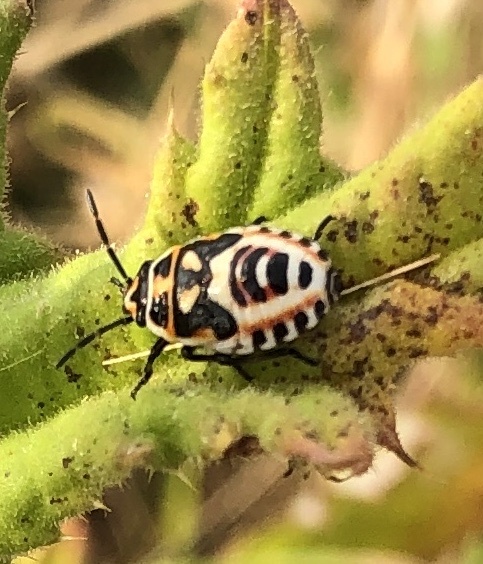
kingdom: Animalia
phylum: Arthropoda
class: Insecta
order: Hemiptera
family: Pentatomidae
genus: Eurydema
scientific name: Eurydema ornata
